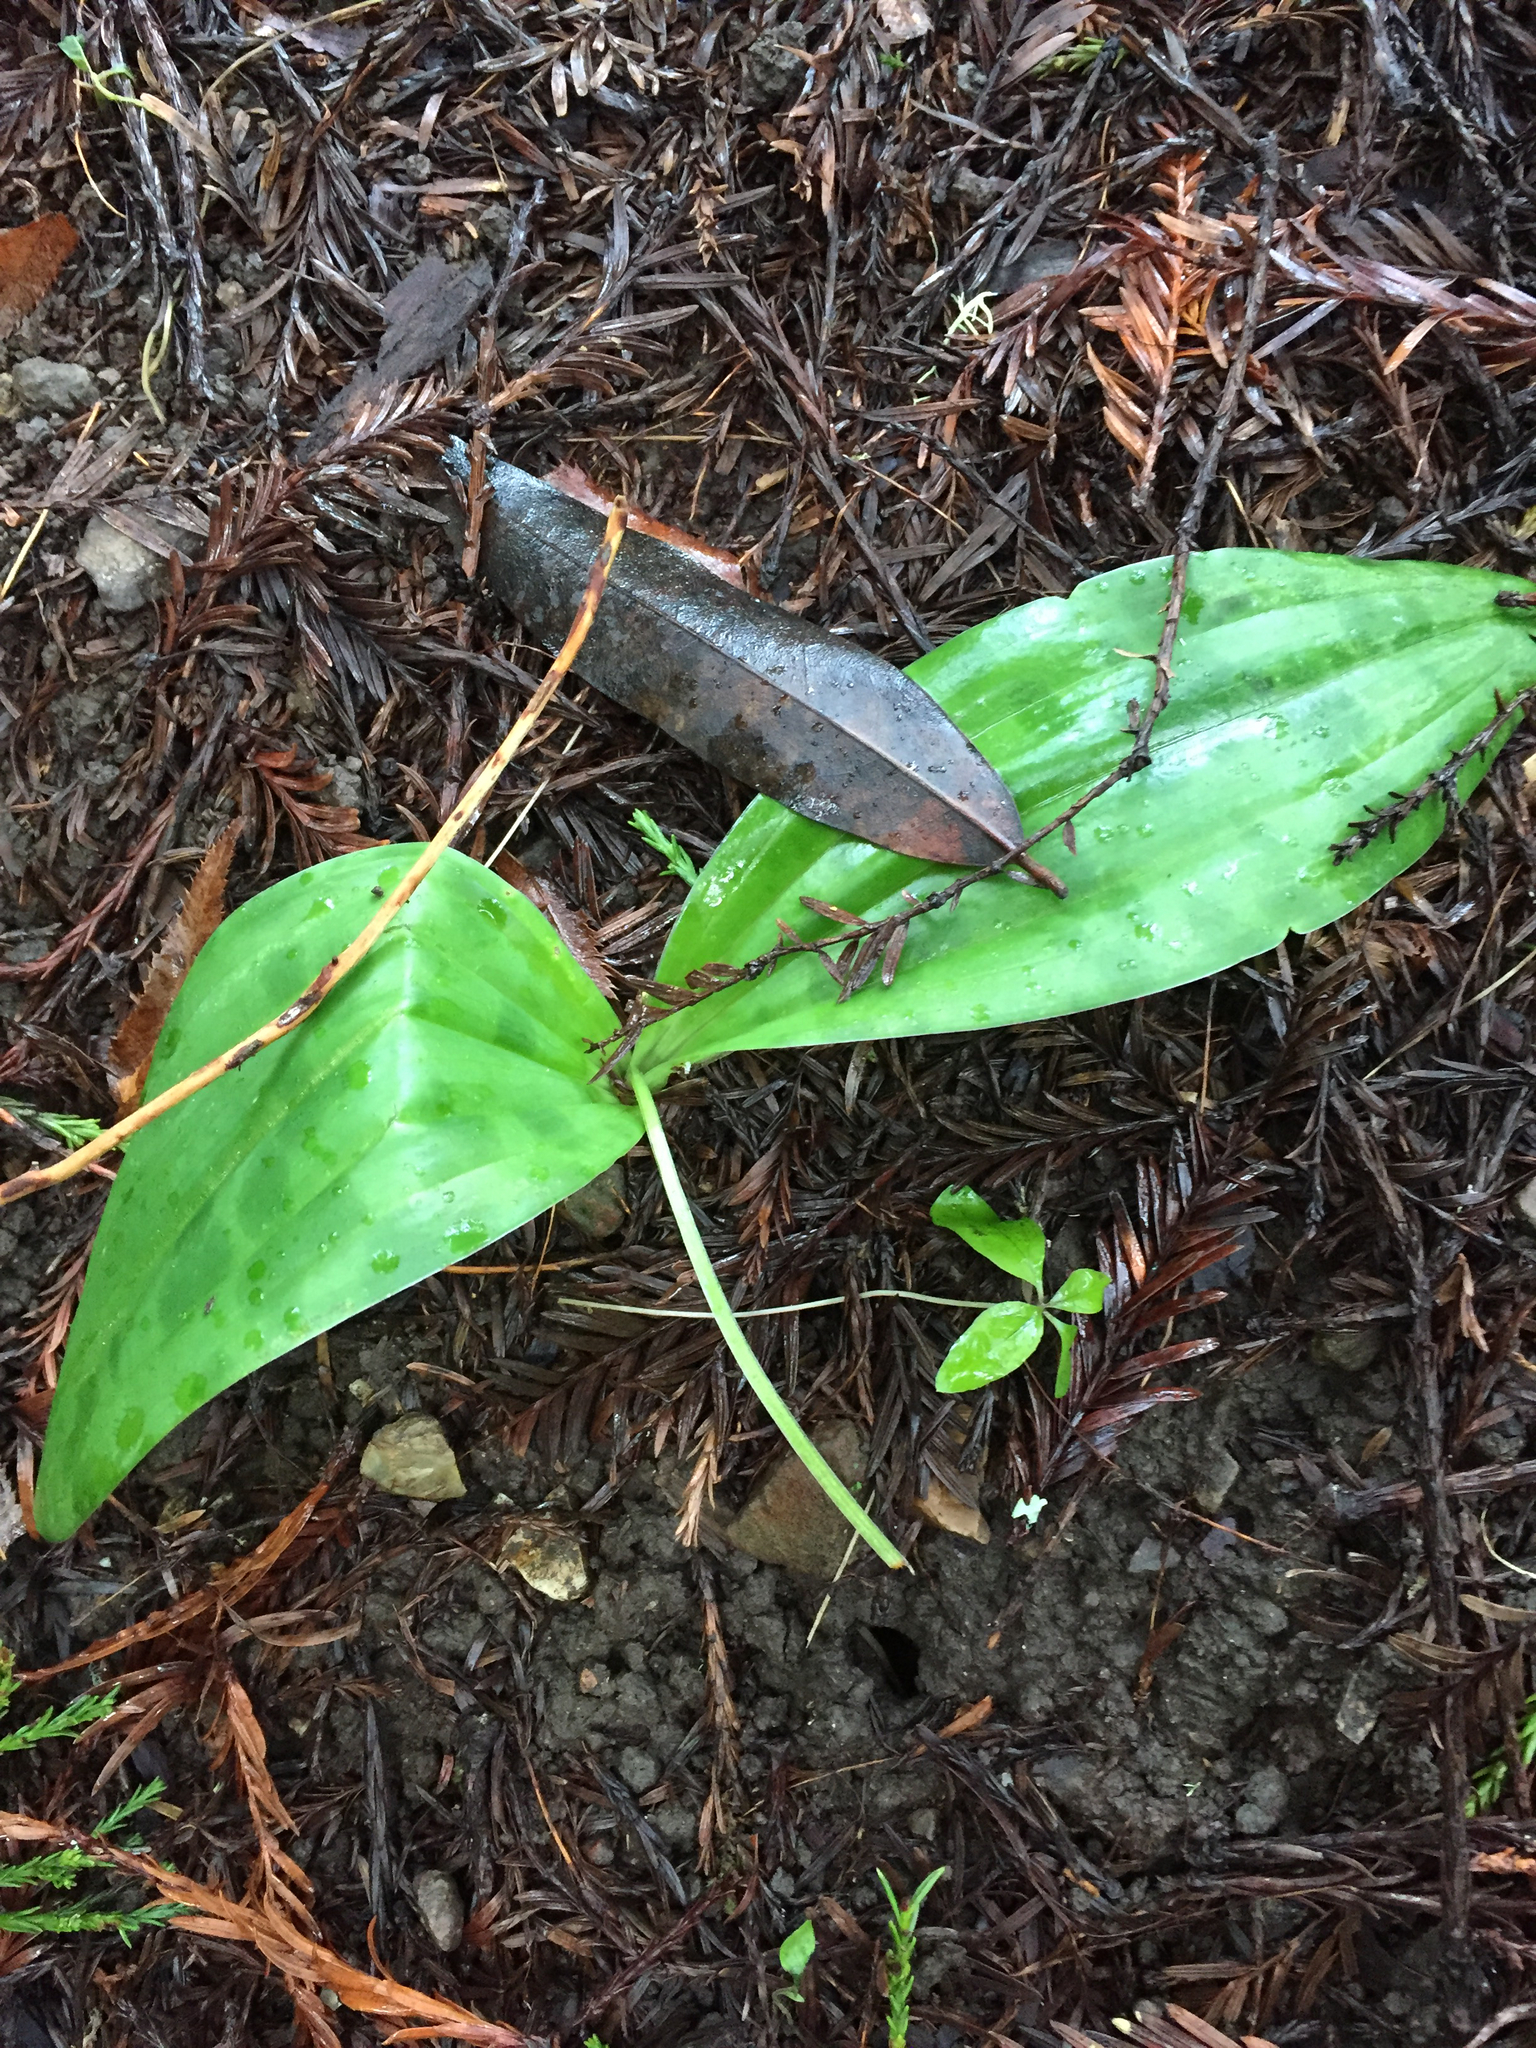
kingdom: Plantae
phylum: Tracheophyta
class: Liliopsida
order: Liliales
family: Liliaceae
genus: Scoliopus
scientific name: Scoliopus bigelovii
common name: Foetid adder's-tongue
